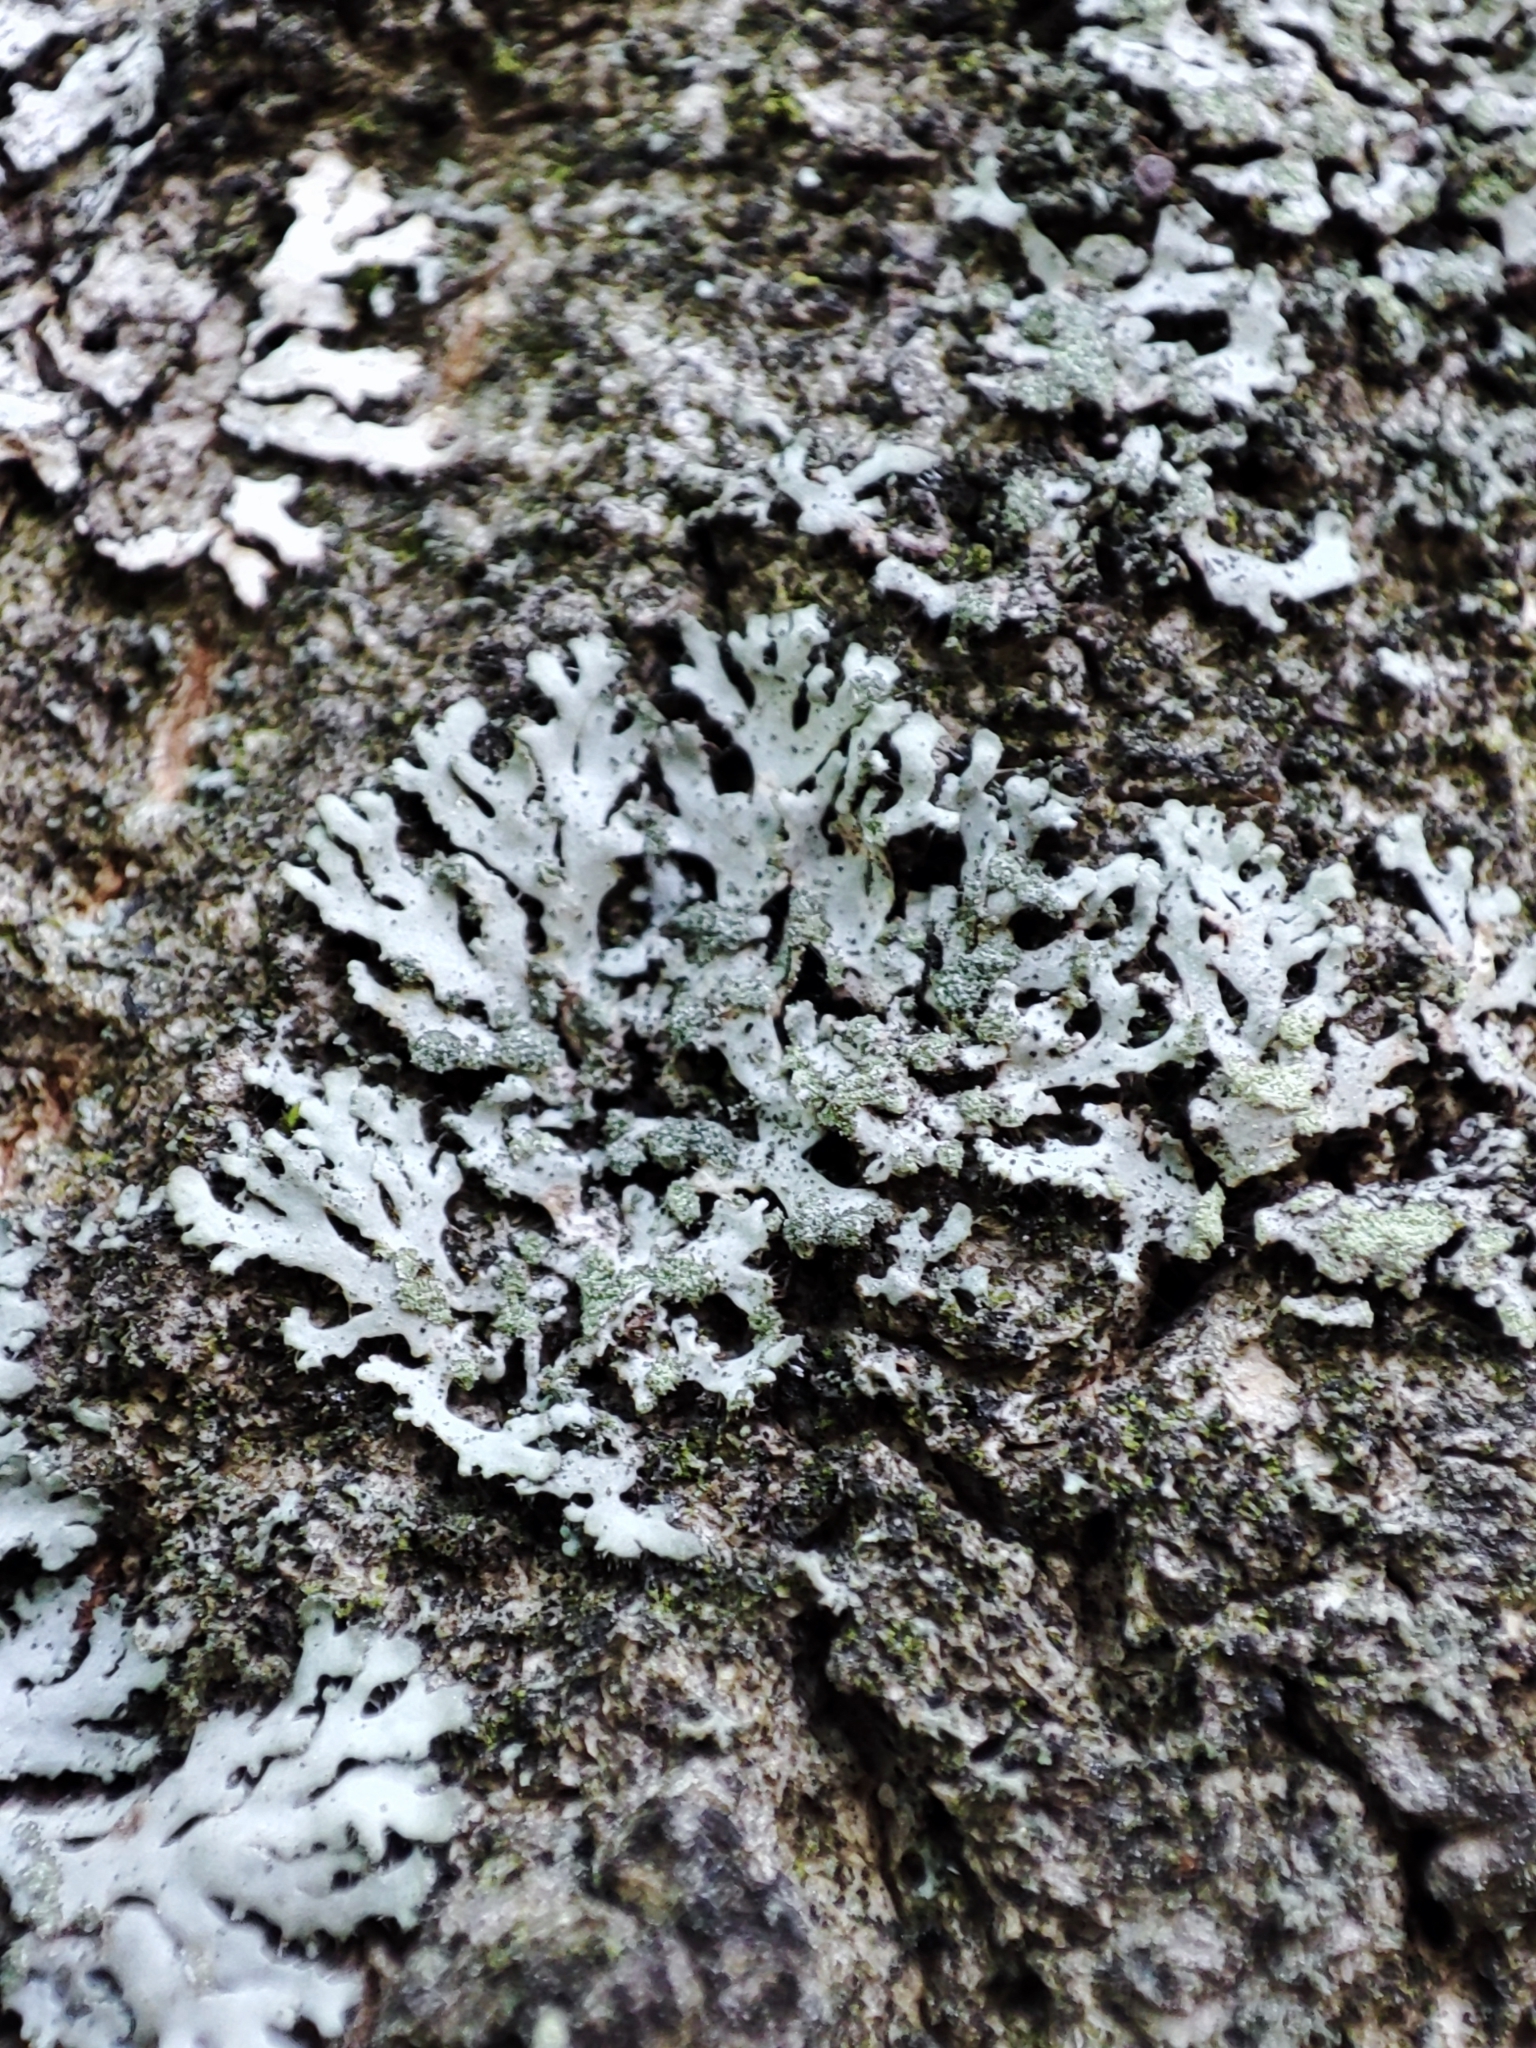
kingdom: Fungi
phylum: Ascomycota
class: Lecanoromycetes
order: Caliciales
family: Physciaceae
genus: Phaeophyscia
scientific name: Phaeophyscia orbicularis
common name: Mealy shadow lichen
